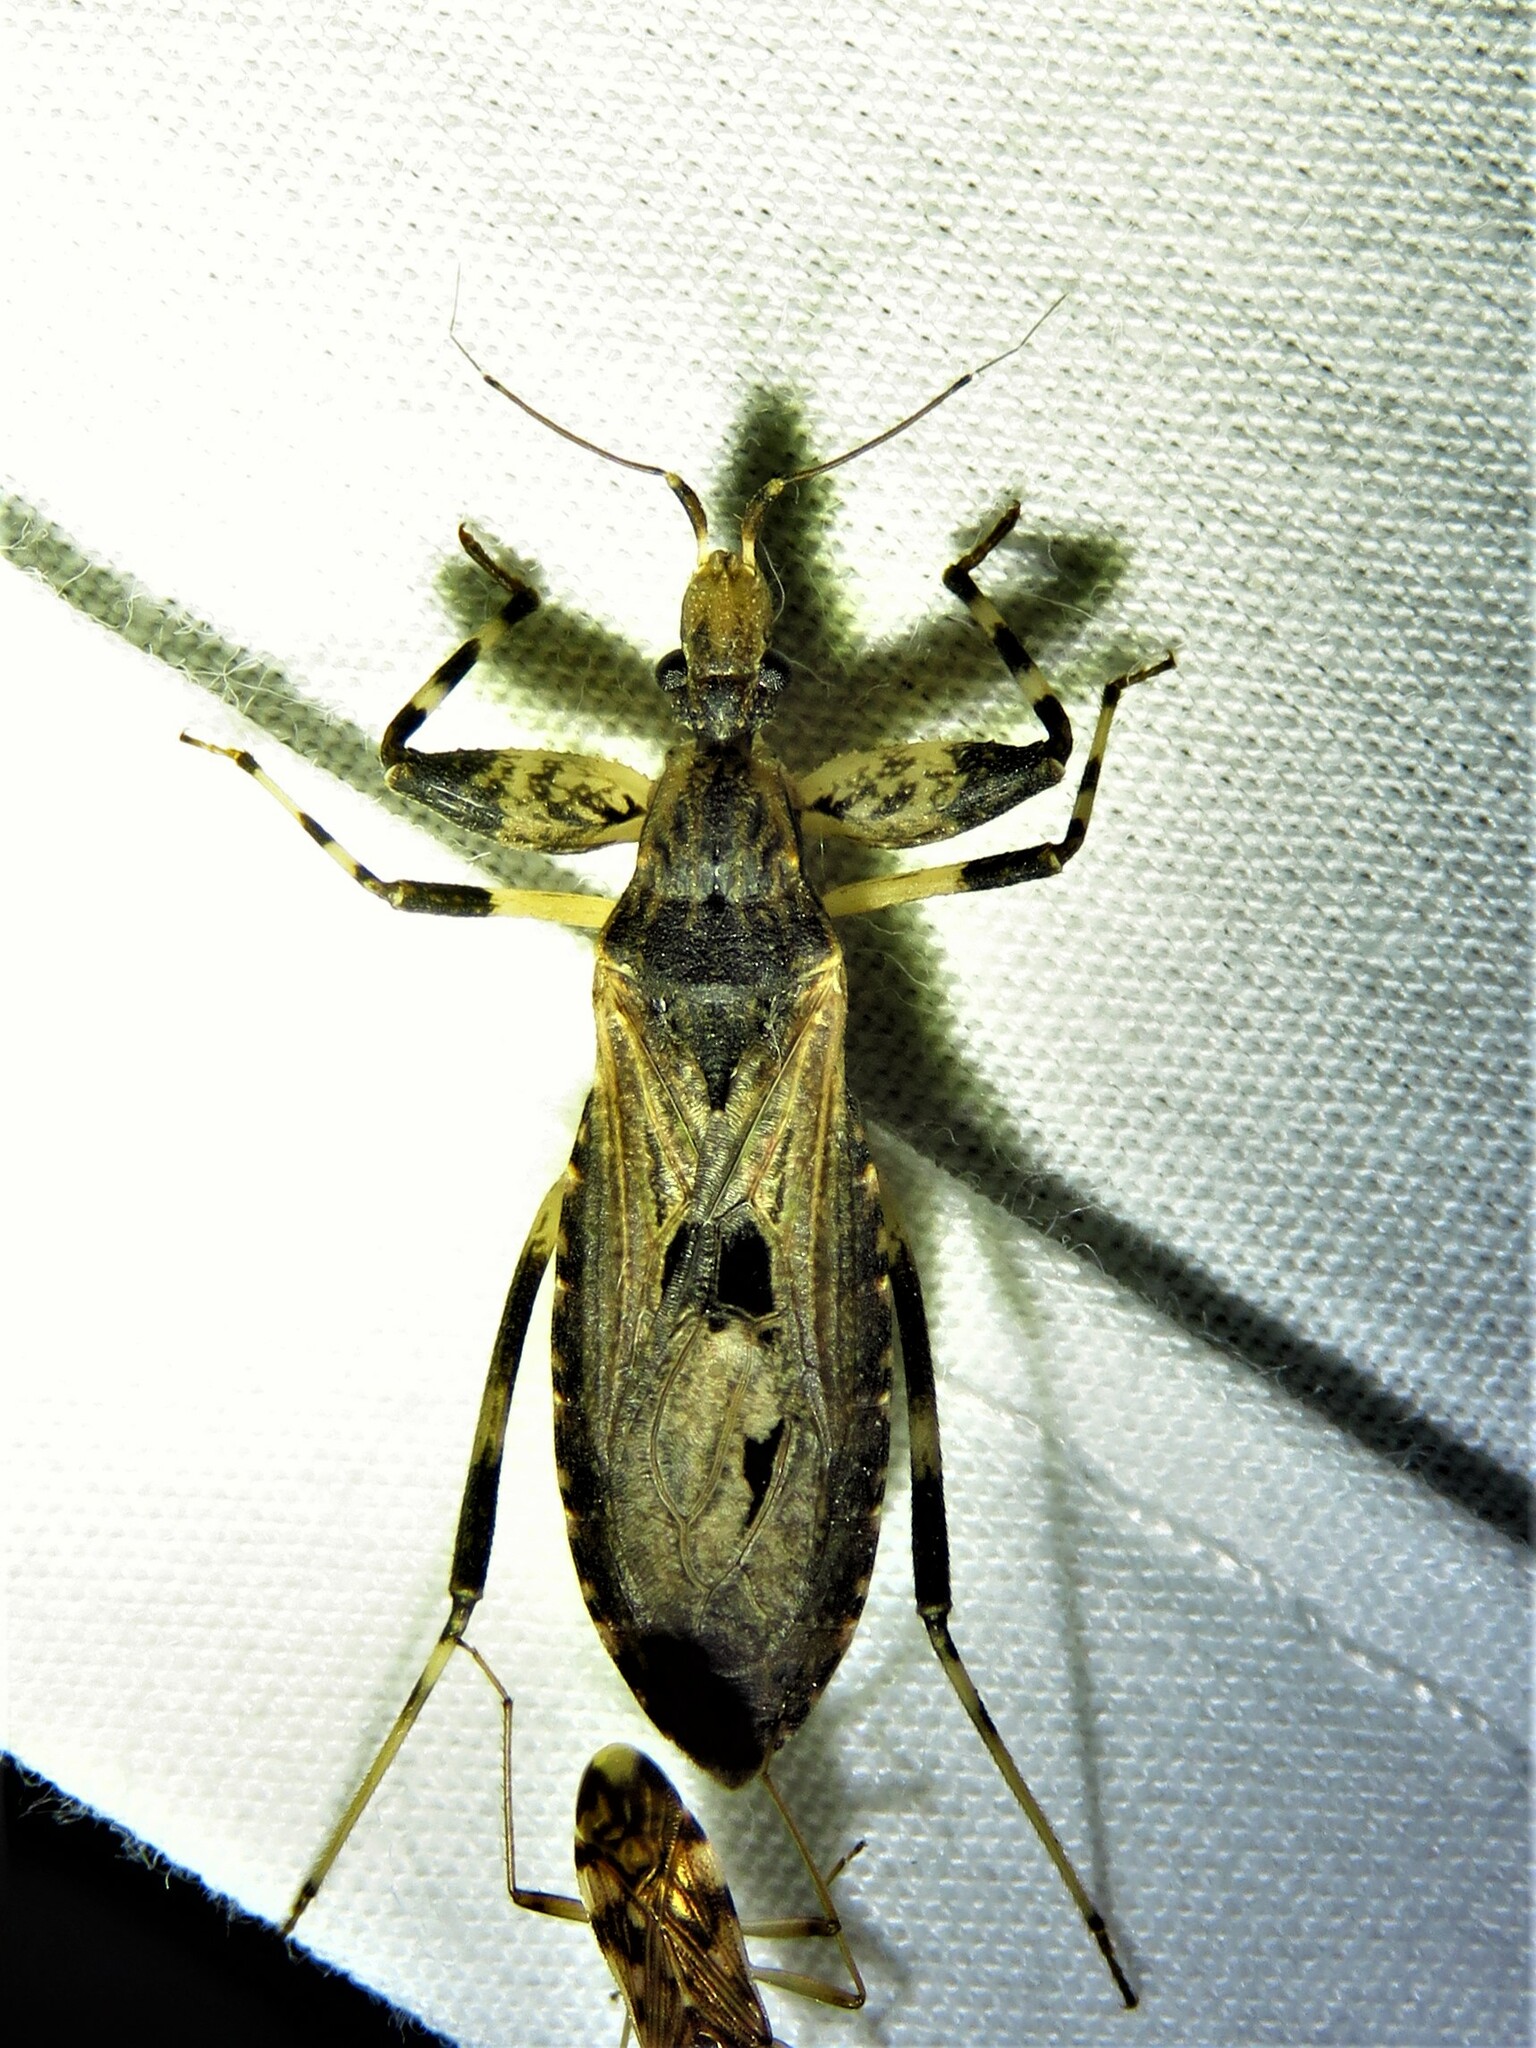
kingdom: Animalia
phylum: Arthropoda
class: Insecta
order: Hemiptera
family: Reduviidae
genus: Oncocephalus
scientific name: Oncocephalus geniculatus
